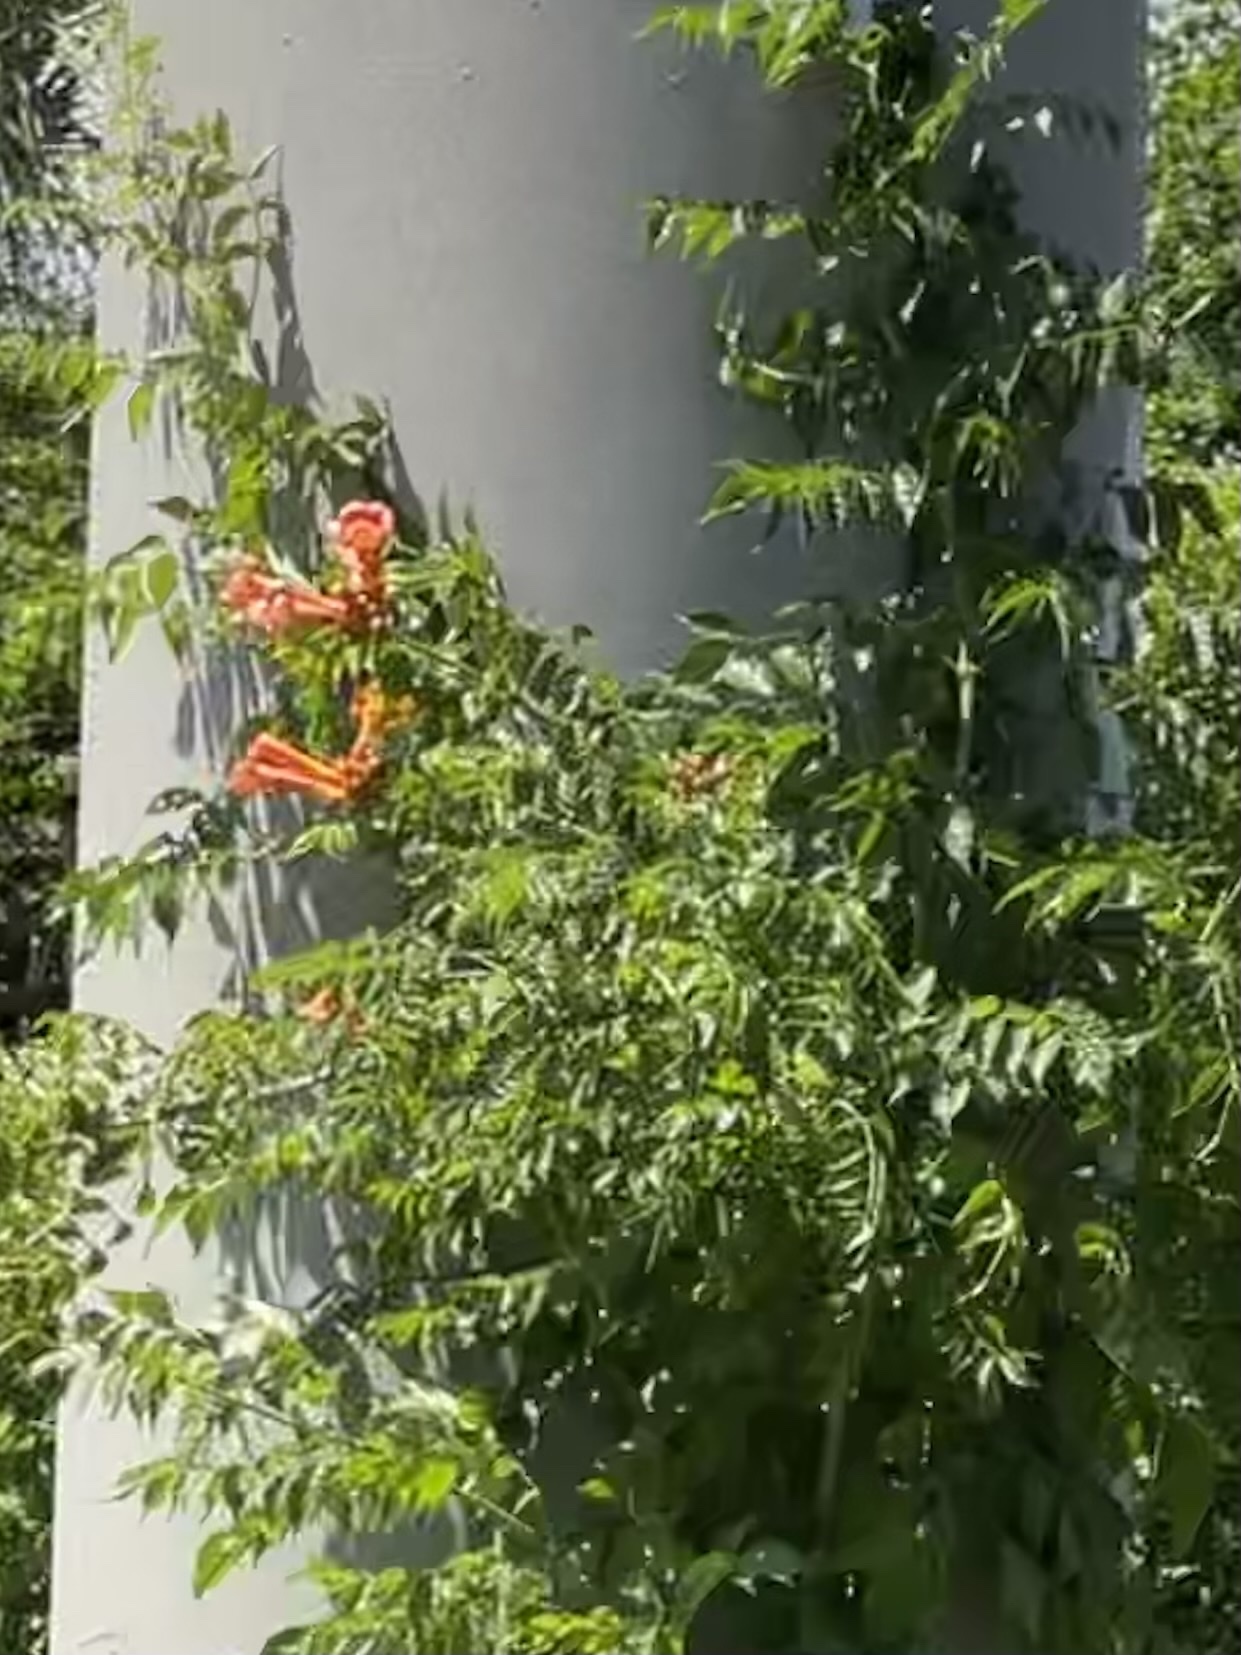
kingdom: Plantae
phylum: Tracheophyta
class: Magnoliopsida
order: Lamiales
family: Bignoniaceae
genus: Campsis
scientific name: Campsis radicans
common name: Trumpet-creeper
